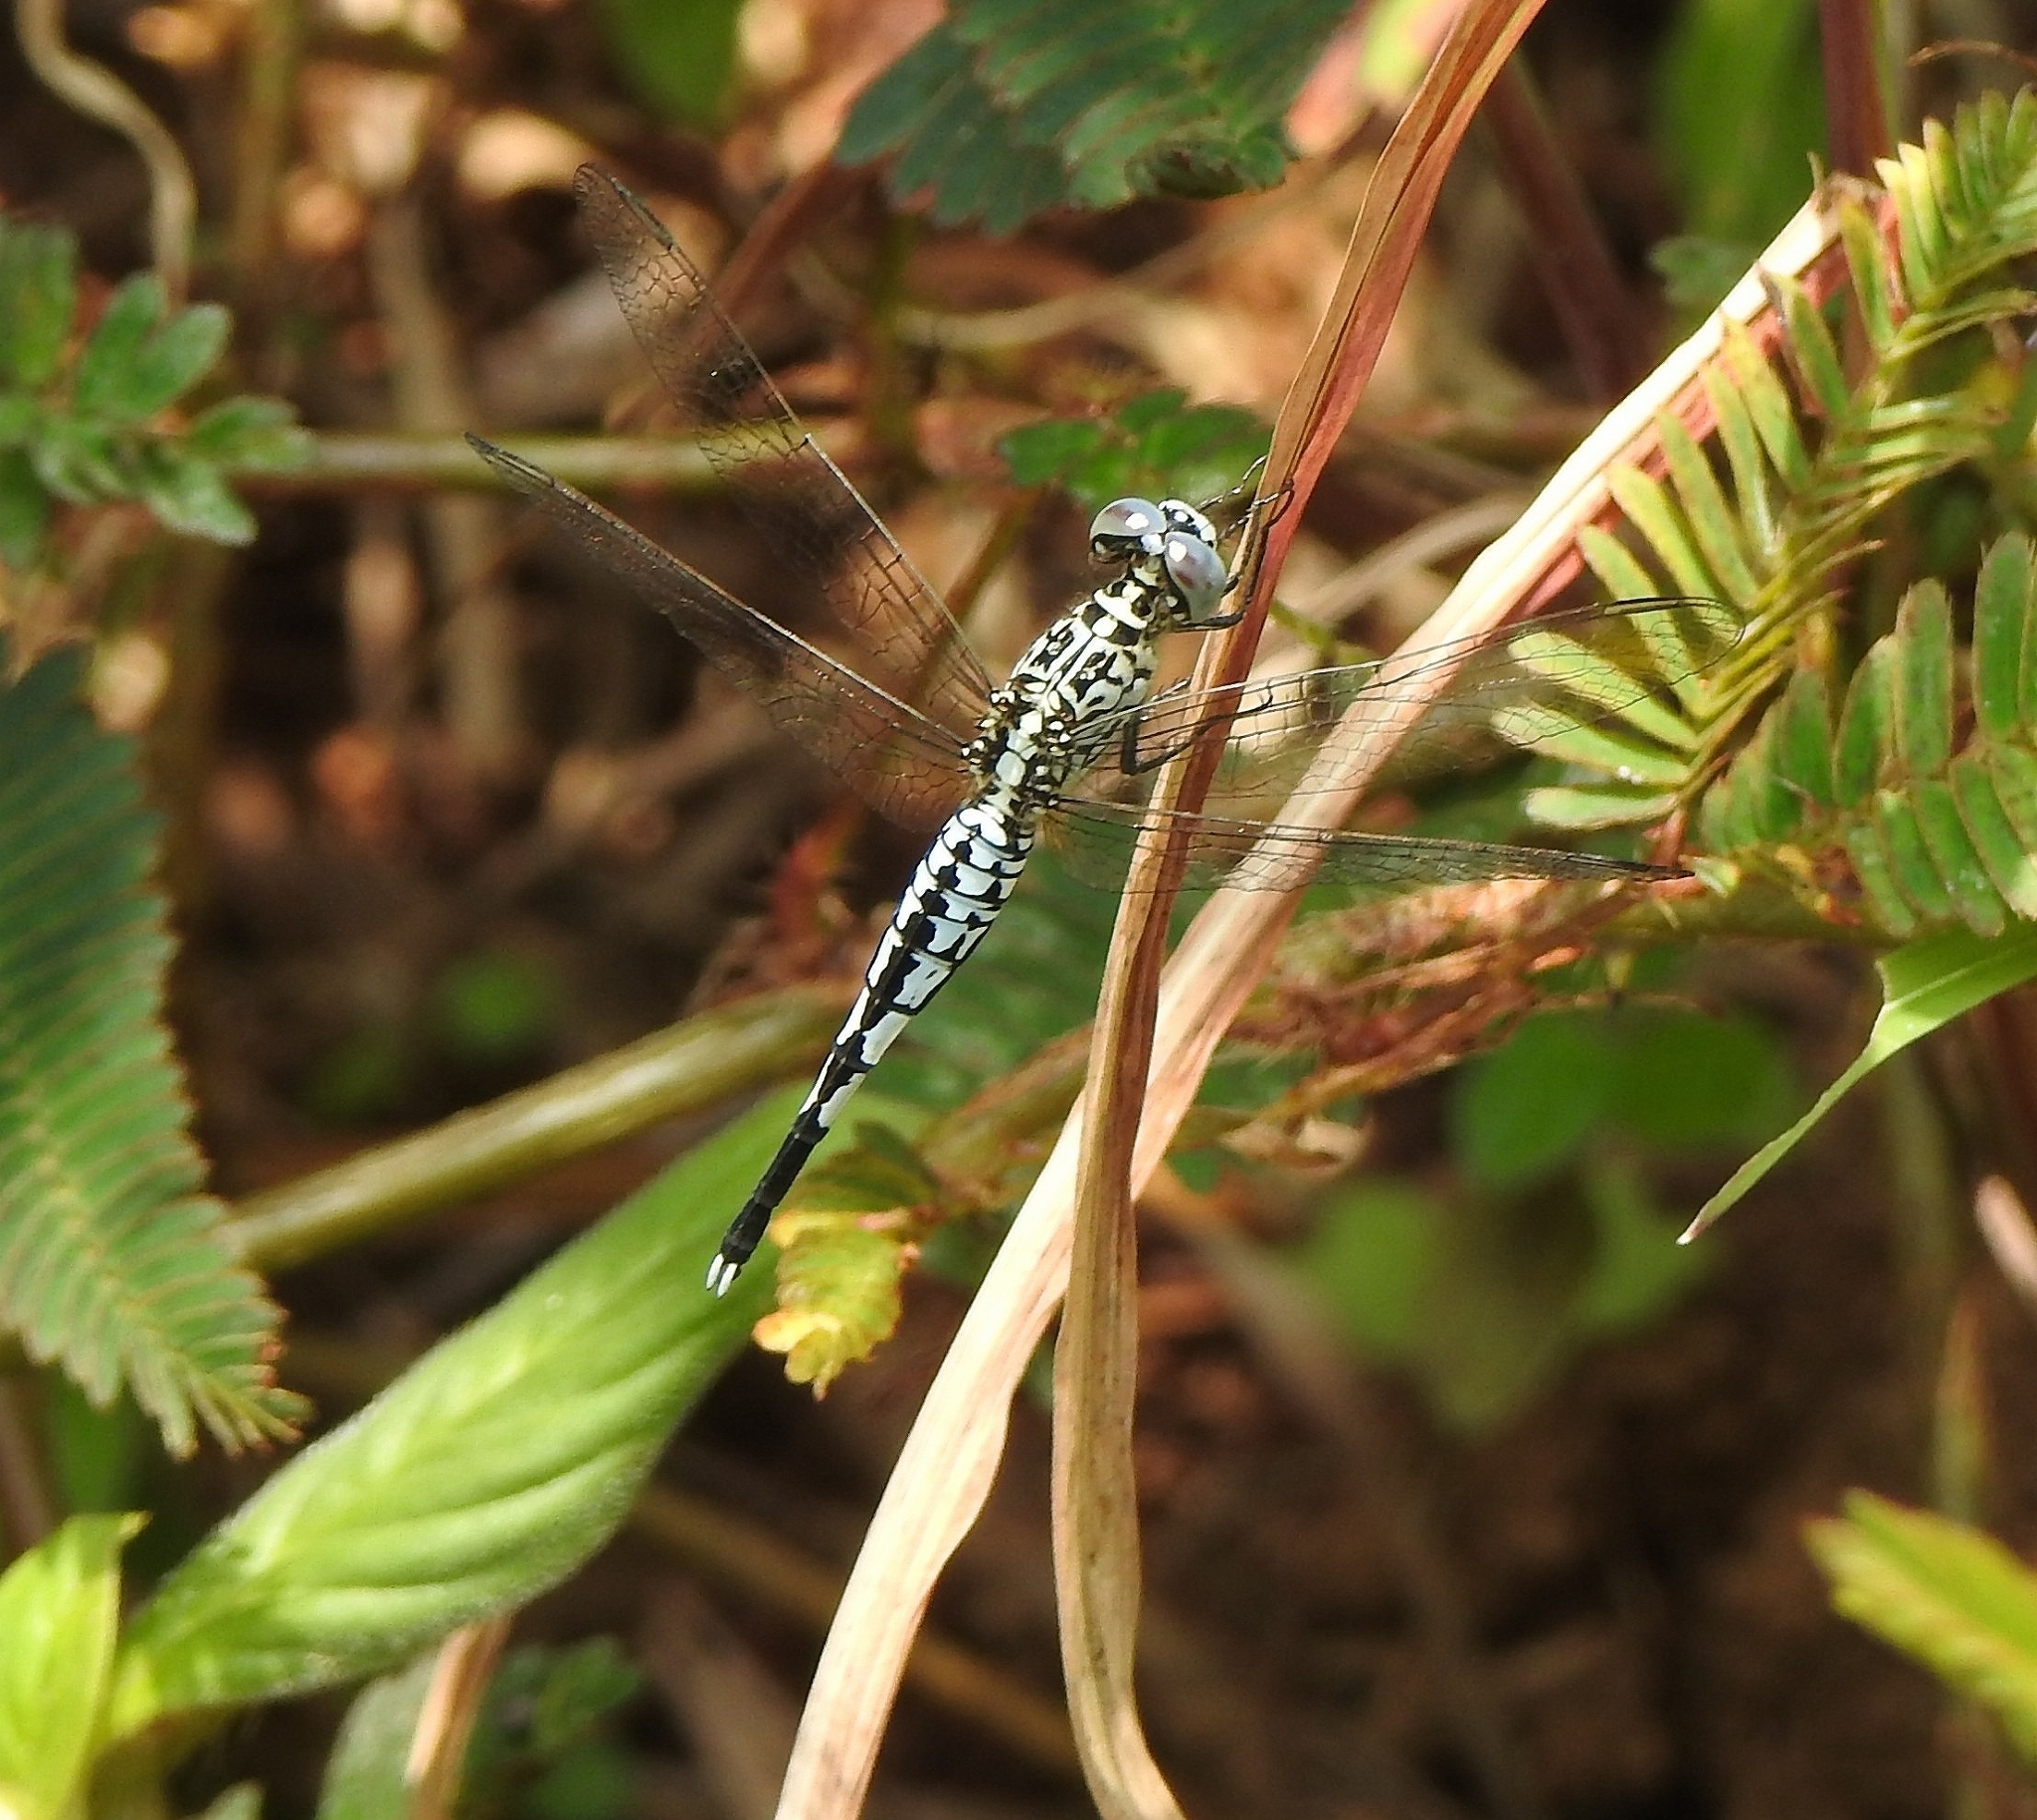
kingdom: Animalia
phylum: Arthropoda
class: Insecta
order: Odonata
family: Libellulidae
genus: Acisoma
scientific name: Acisoma panorpoides
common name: Asian pintail
